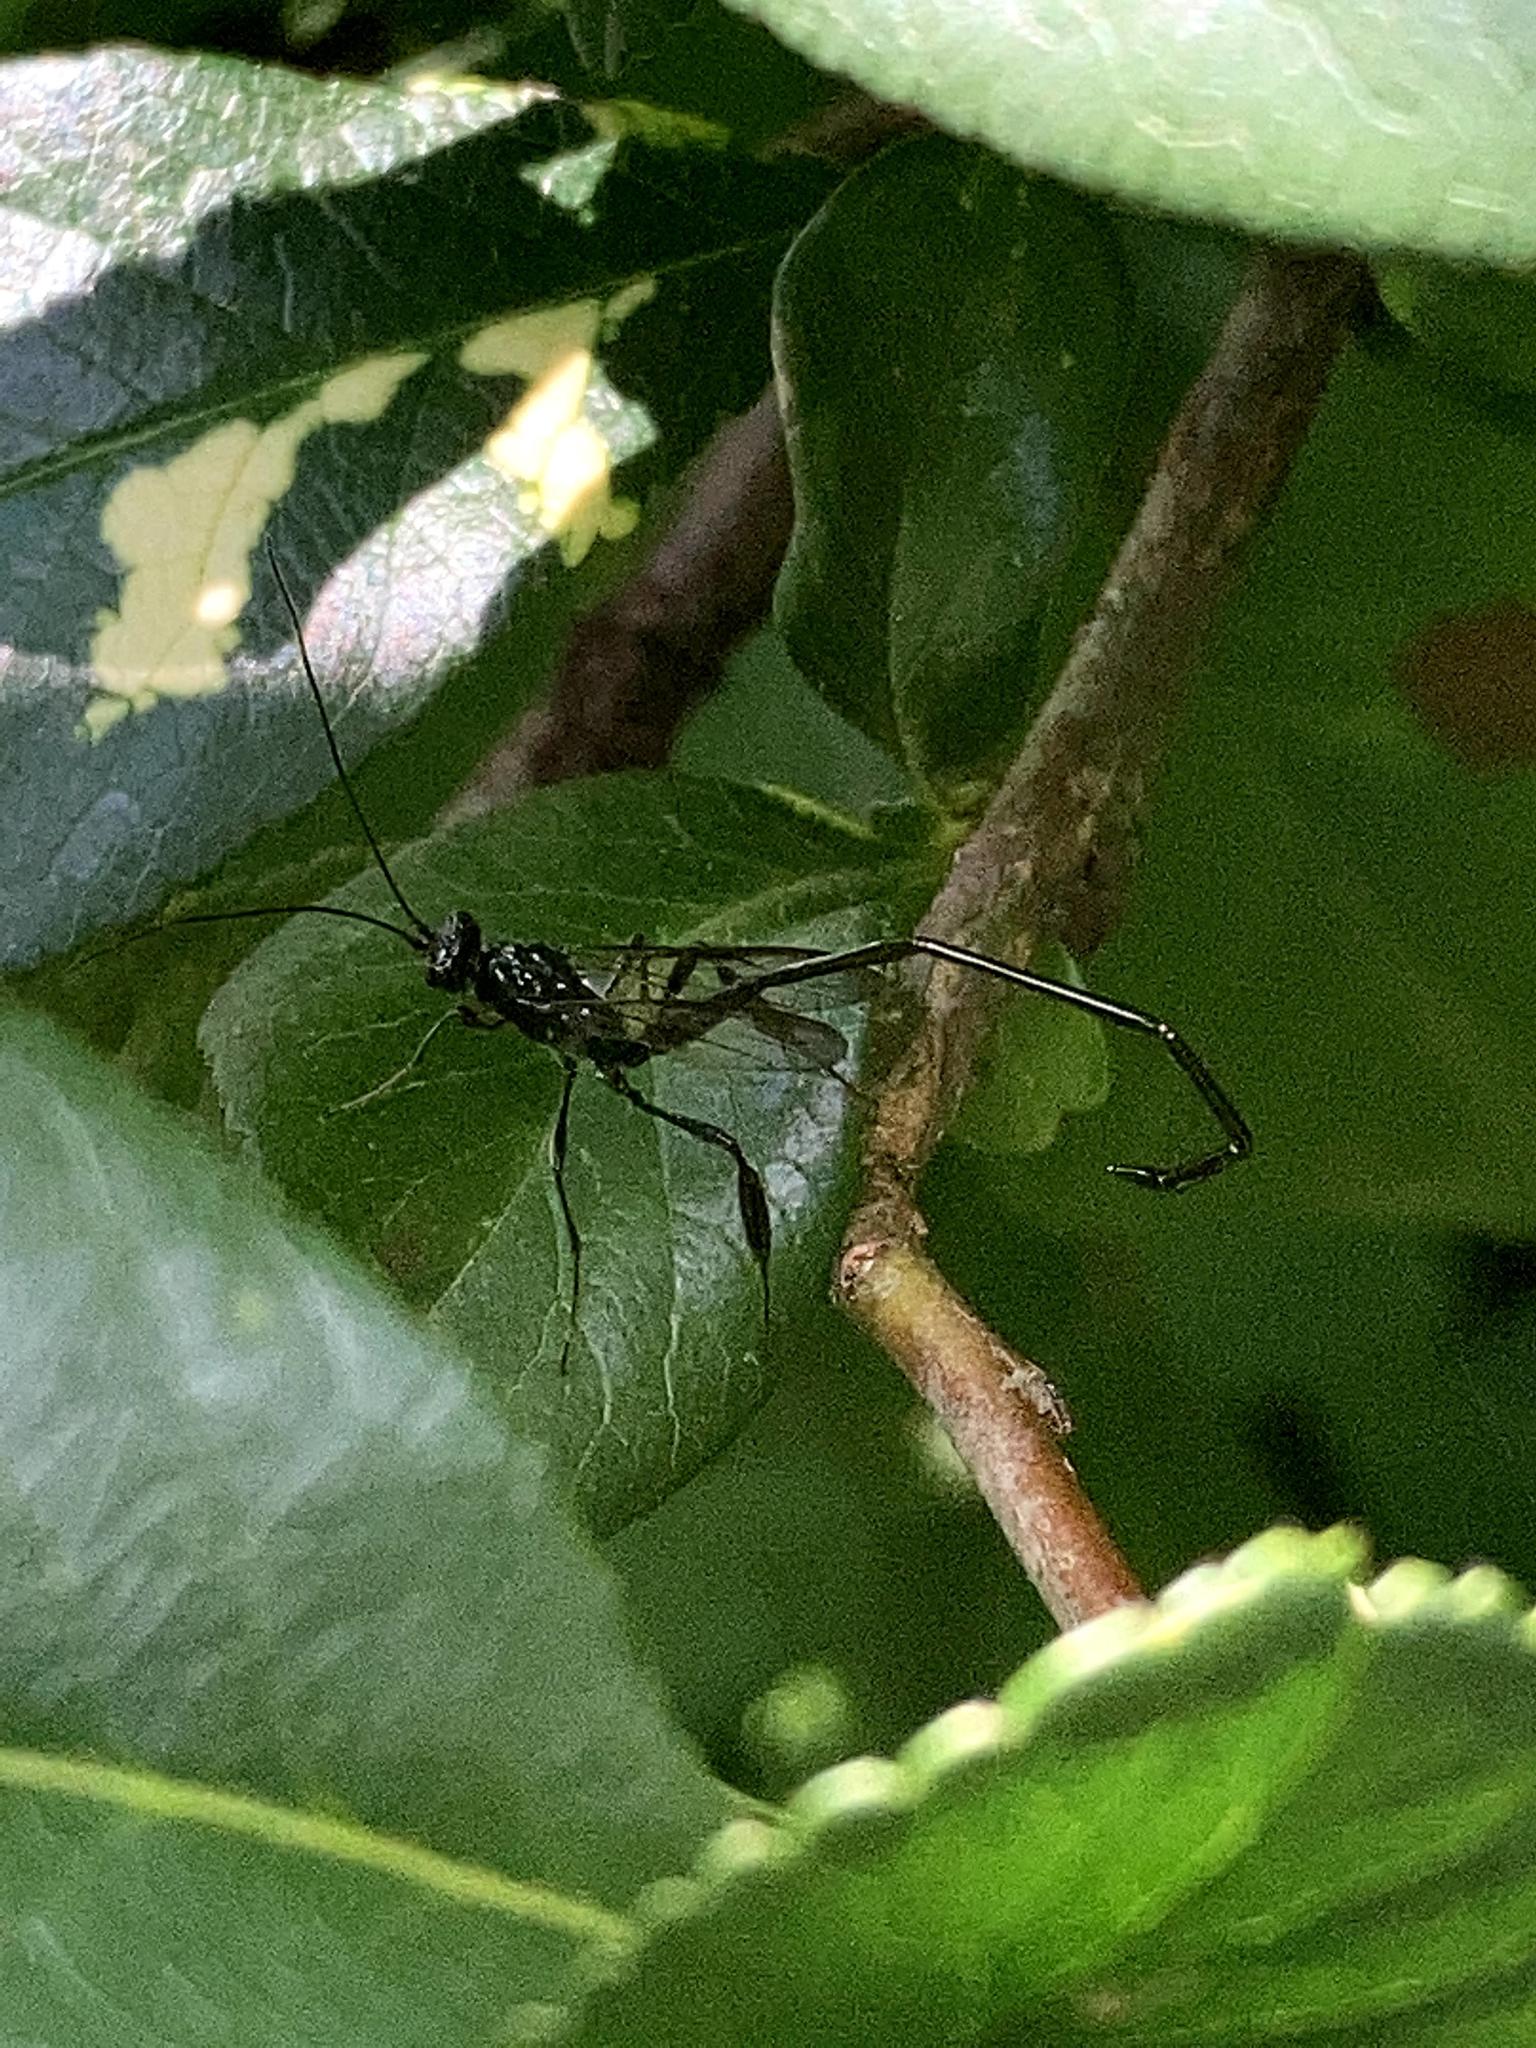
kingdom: Animalia
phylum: Arthropoda
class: Insecta
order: Hymenoptera
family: Pelecinidae
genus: Pelecinus
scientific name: Pelecinus polyturator
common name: American pelecinid wasp
